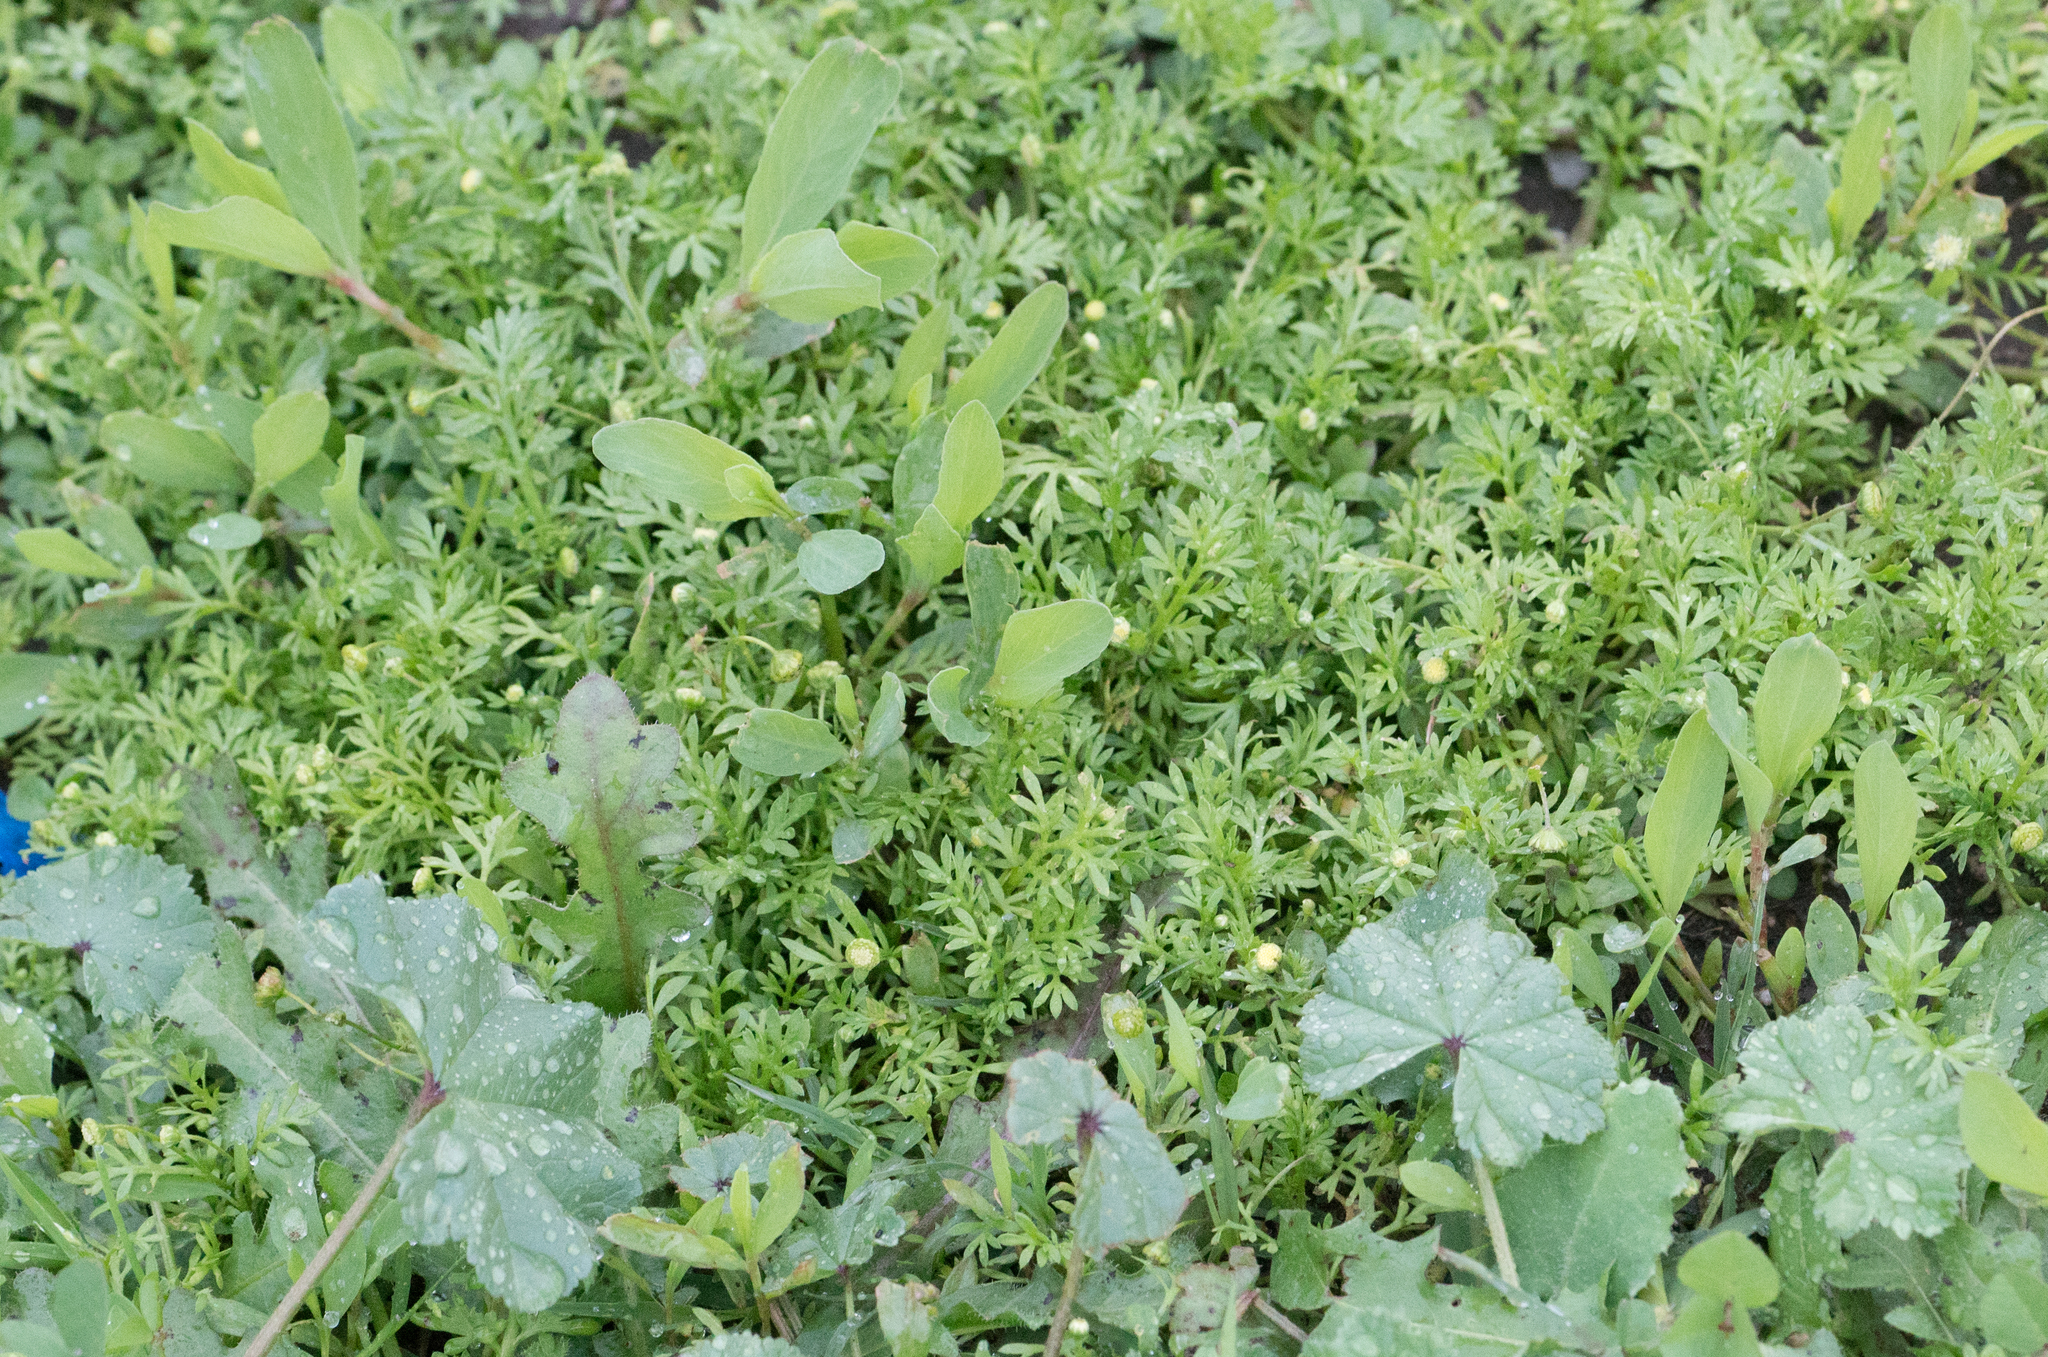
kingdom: Plantae
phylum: Tracheophyta
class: Magnoliopsida
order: Asterales
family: Asteraceae
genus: Cotula
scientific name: Cotula australis
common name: Australian waterbuttons
